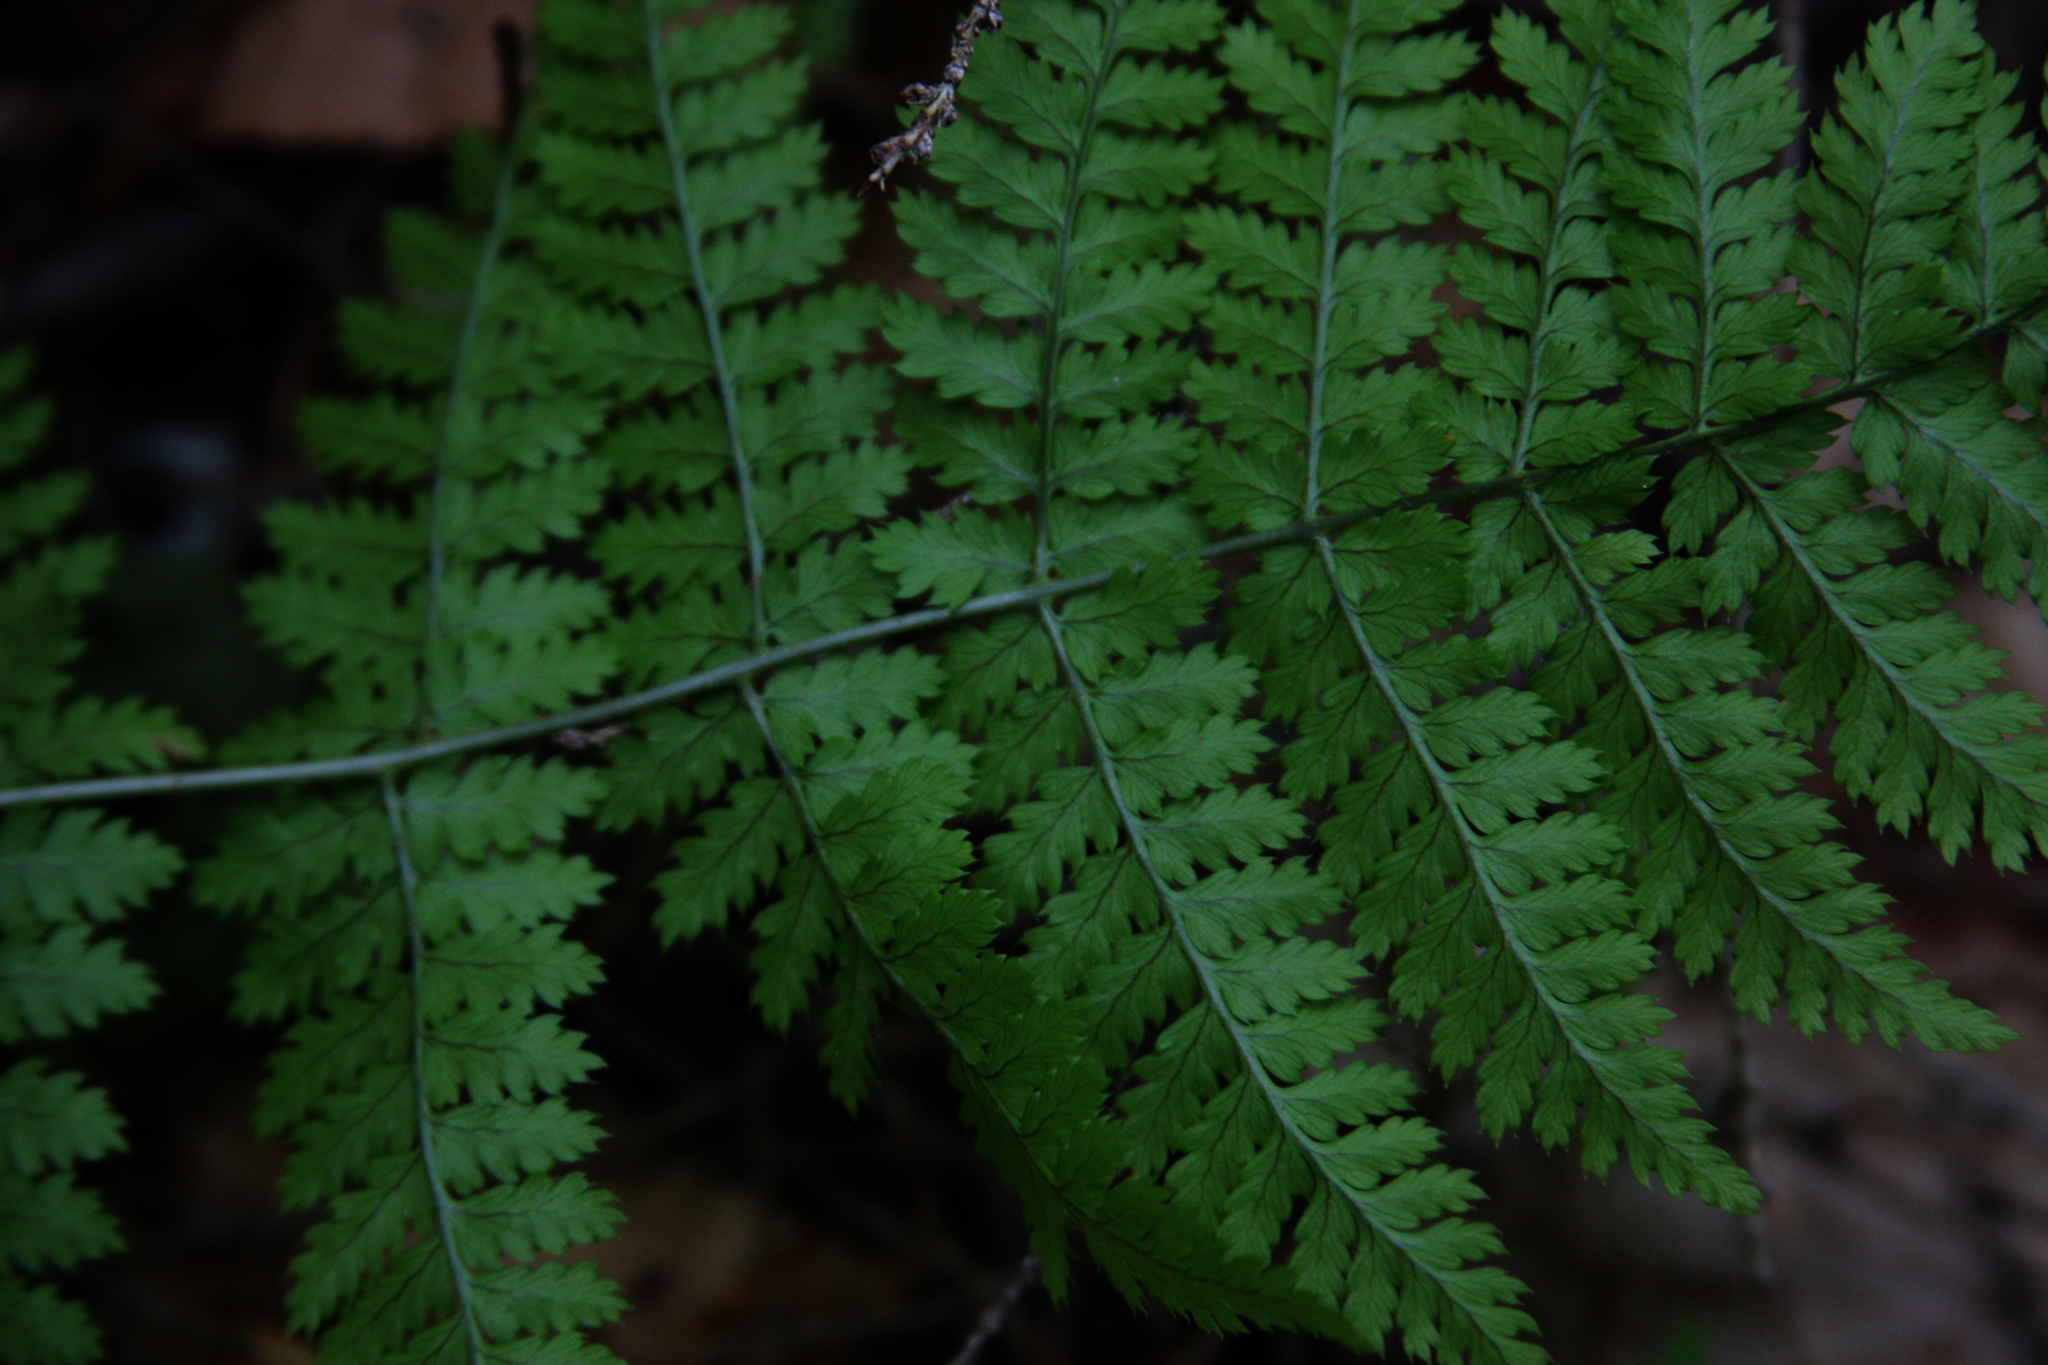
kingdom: Plantae
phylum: Tracheophyta
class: Polypodiopsida
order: Polypodiales
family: Dryopteridaceae
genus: Dryopteris
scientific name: Dryopteris intermedia
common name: Evergreen wood fern
